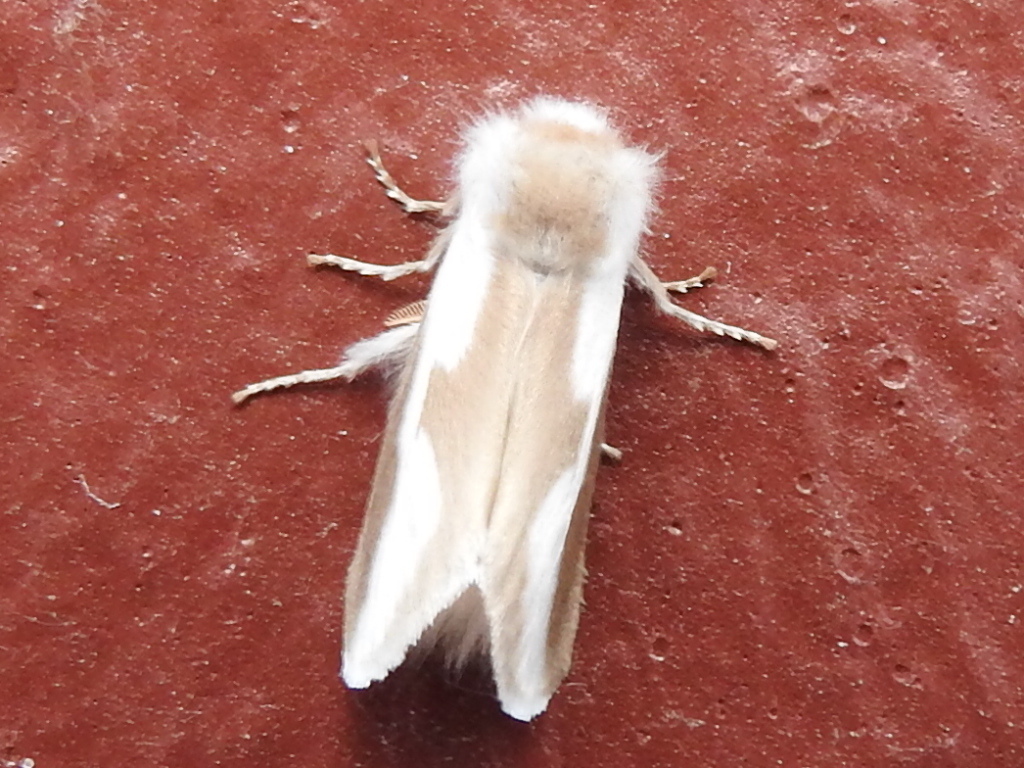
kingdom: Animalia
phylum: Arthropoda
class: Insecta
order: Lepidoptera
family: Megalopygidae
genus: Norape
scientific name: Norape tener
